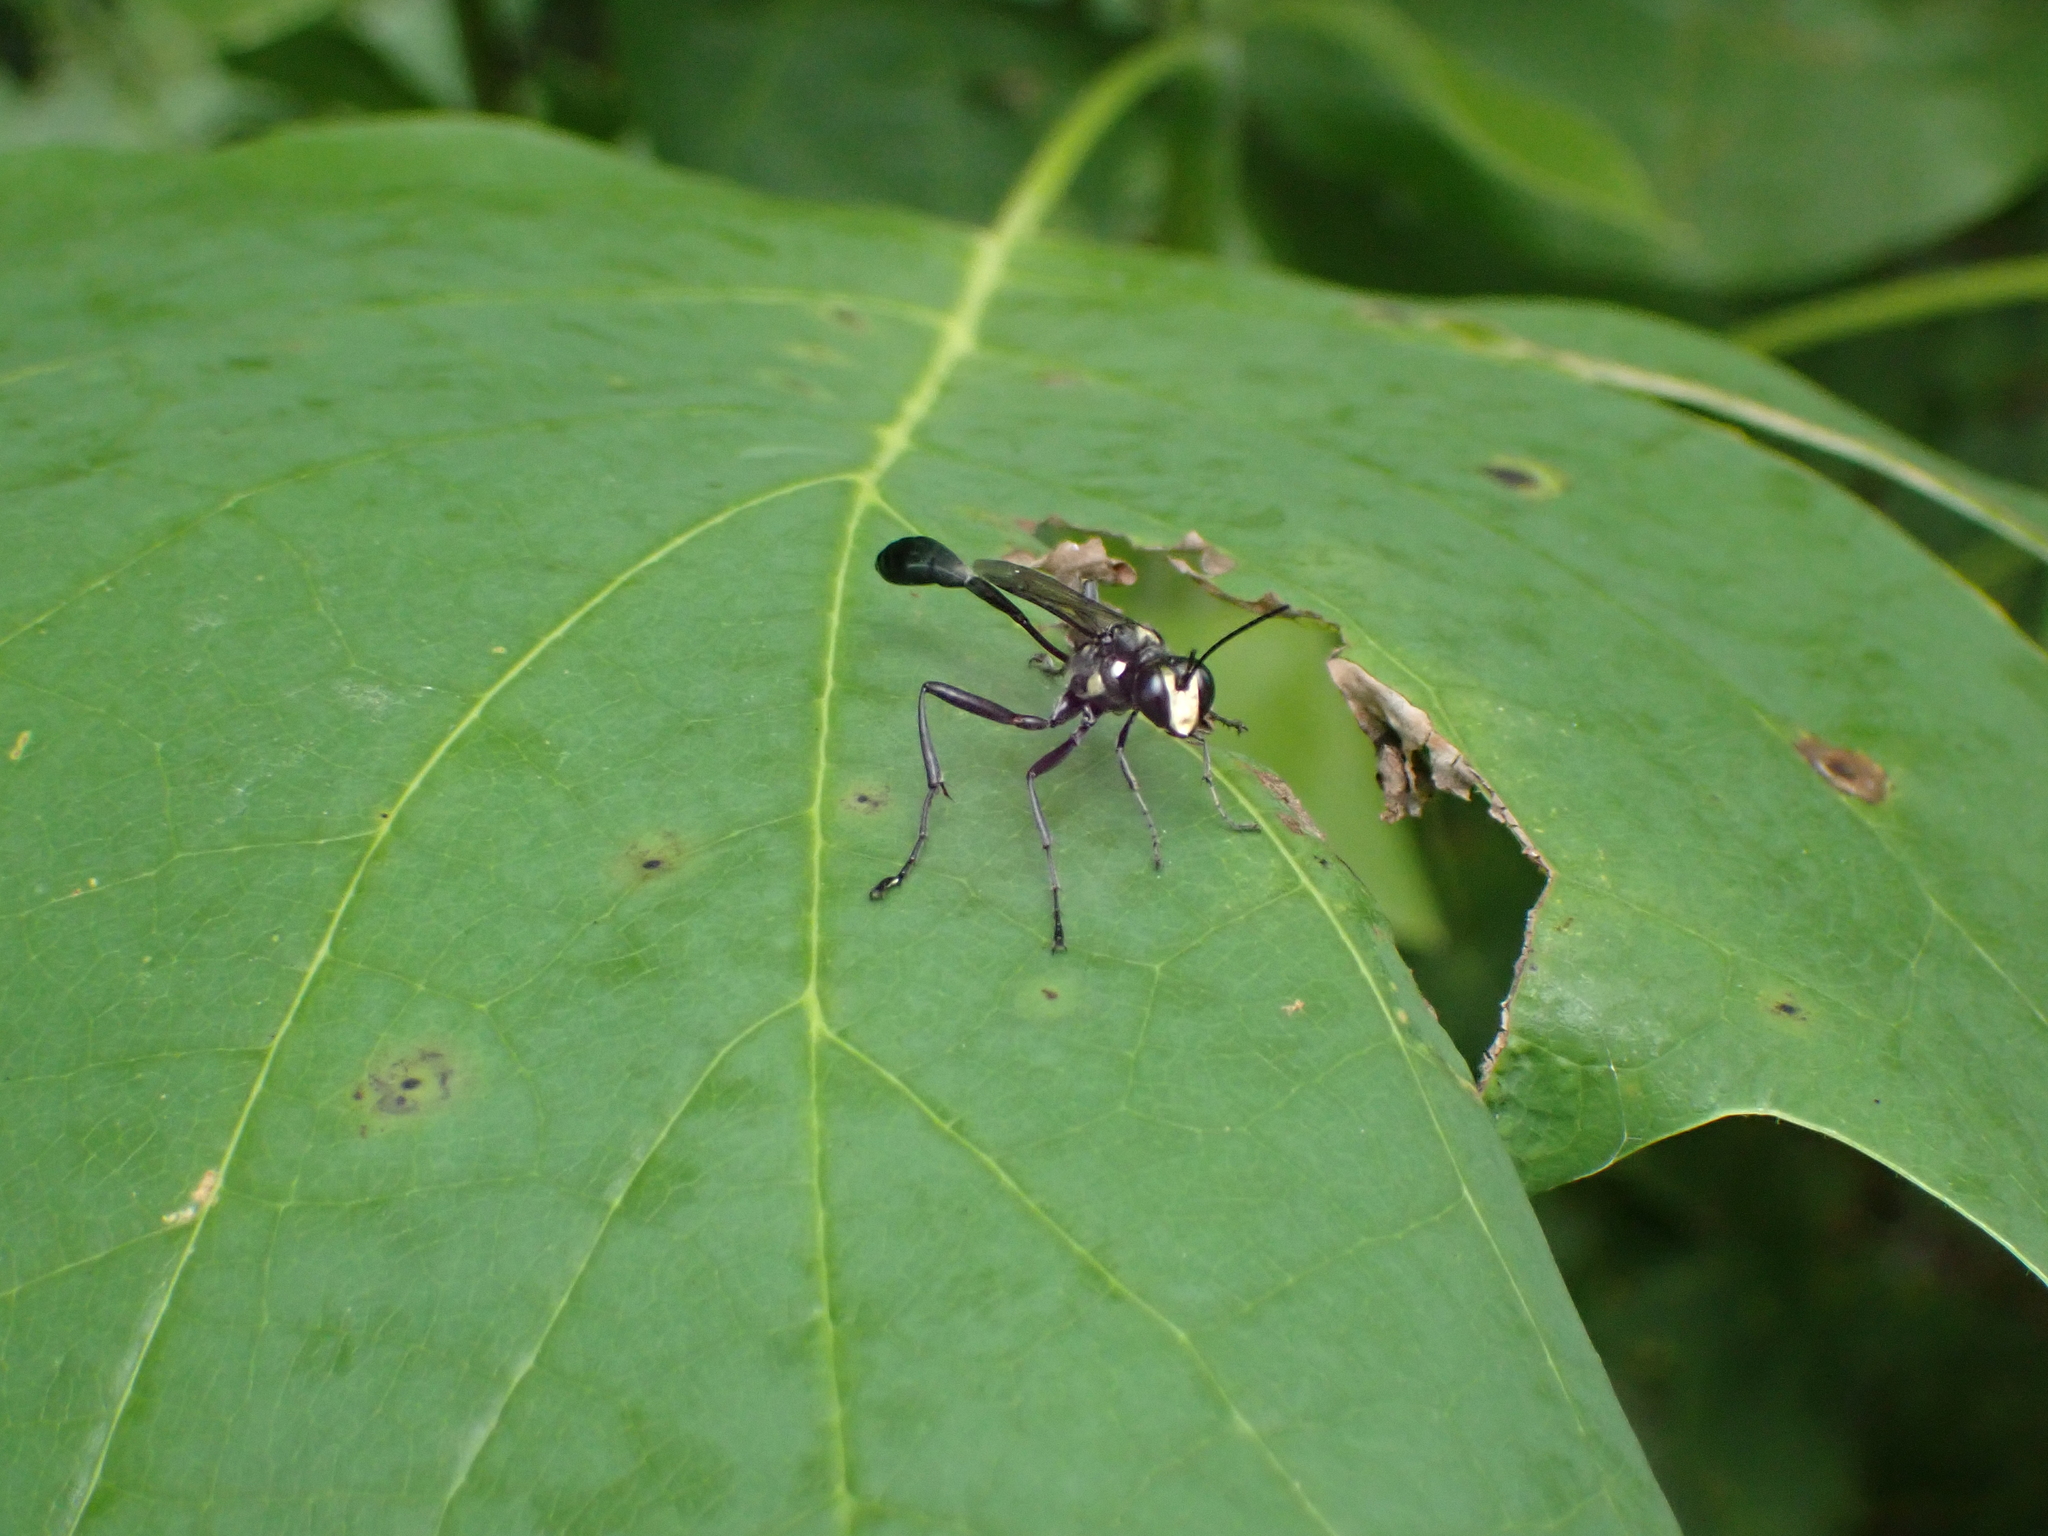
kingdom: Animalia
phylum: Arthropoda
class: Insecta
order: Hymenoptera
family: Sphecidae
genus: Eremnophila
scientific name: Eremnophila aureonotata
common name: Gold-marked thread-waisted wasp
